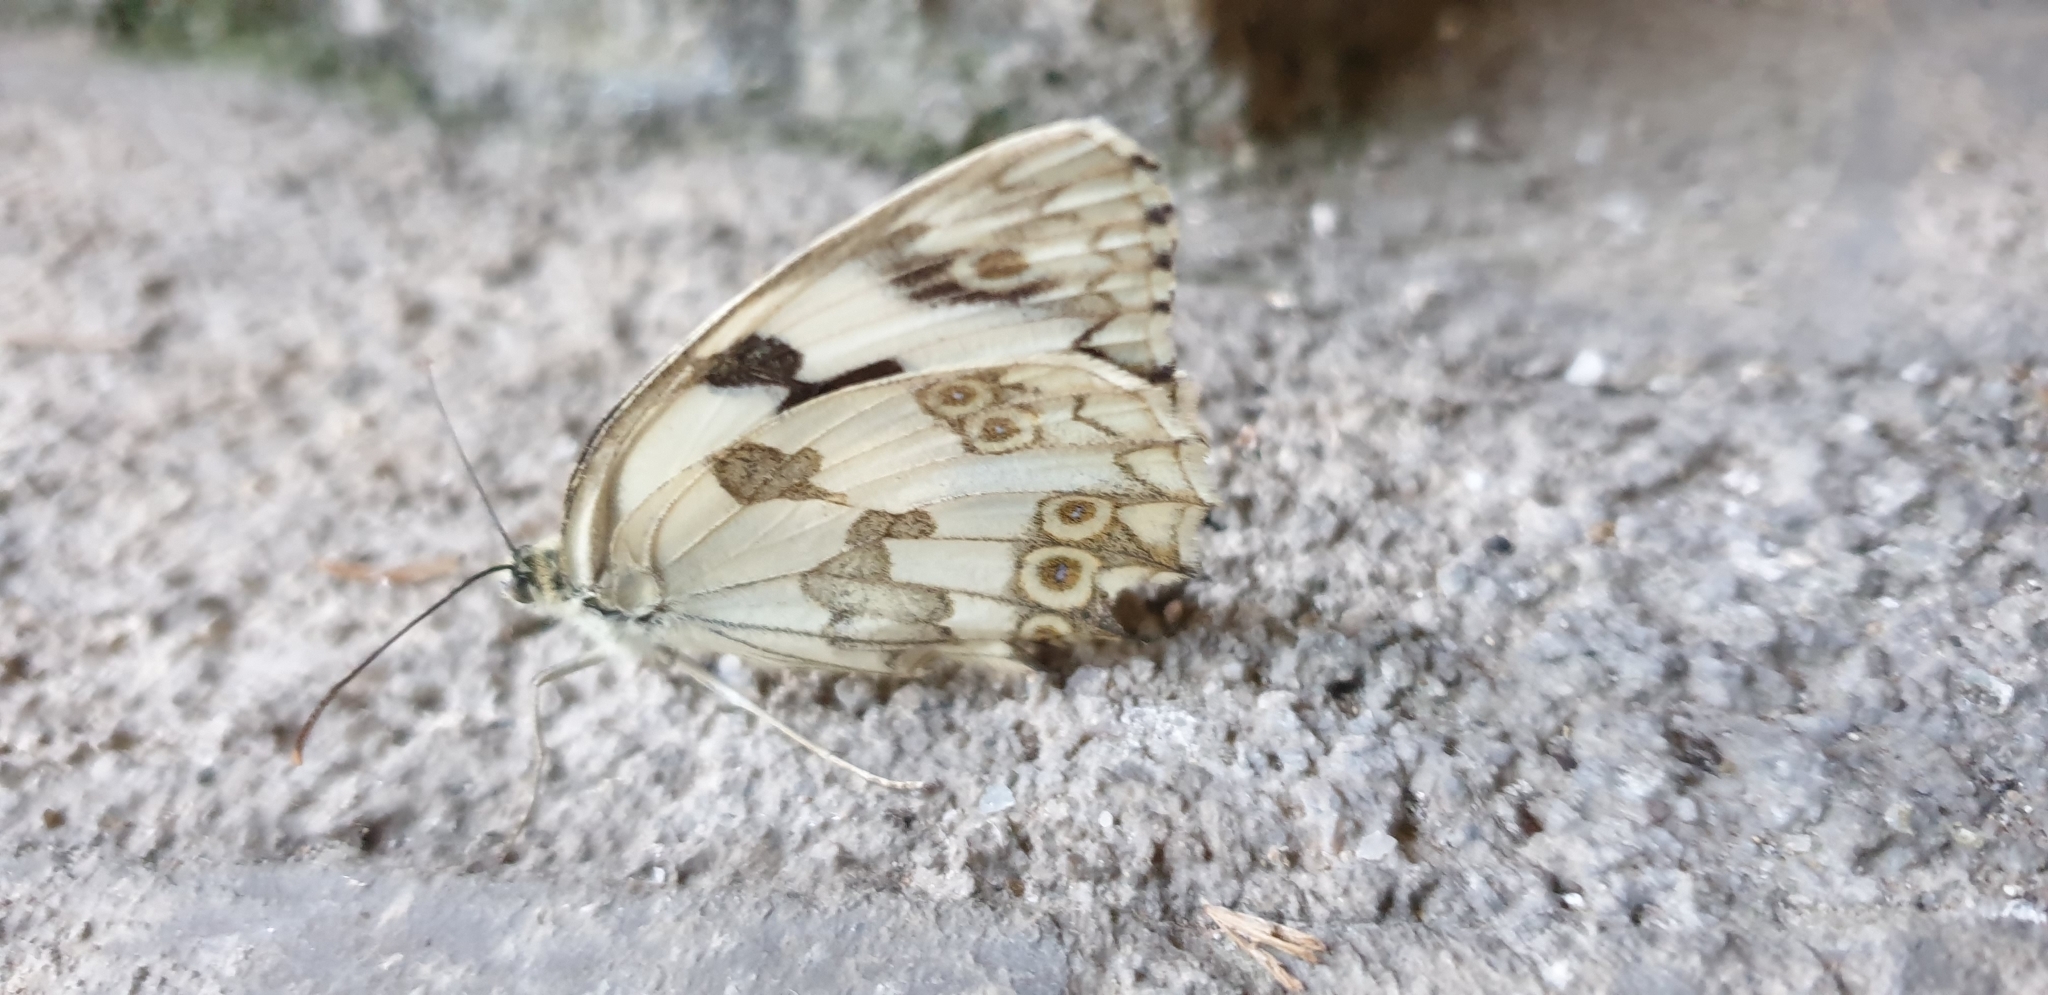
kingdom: Animalia
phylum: Arthropoda
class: Insecta
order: Lepidoptera
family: Nymphalidae
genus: Melanargia
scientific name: Melanargia lachesis
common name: Iberian marbled white
